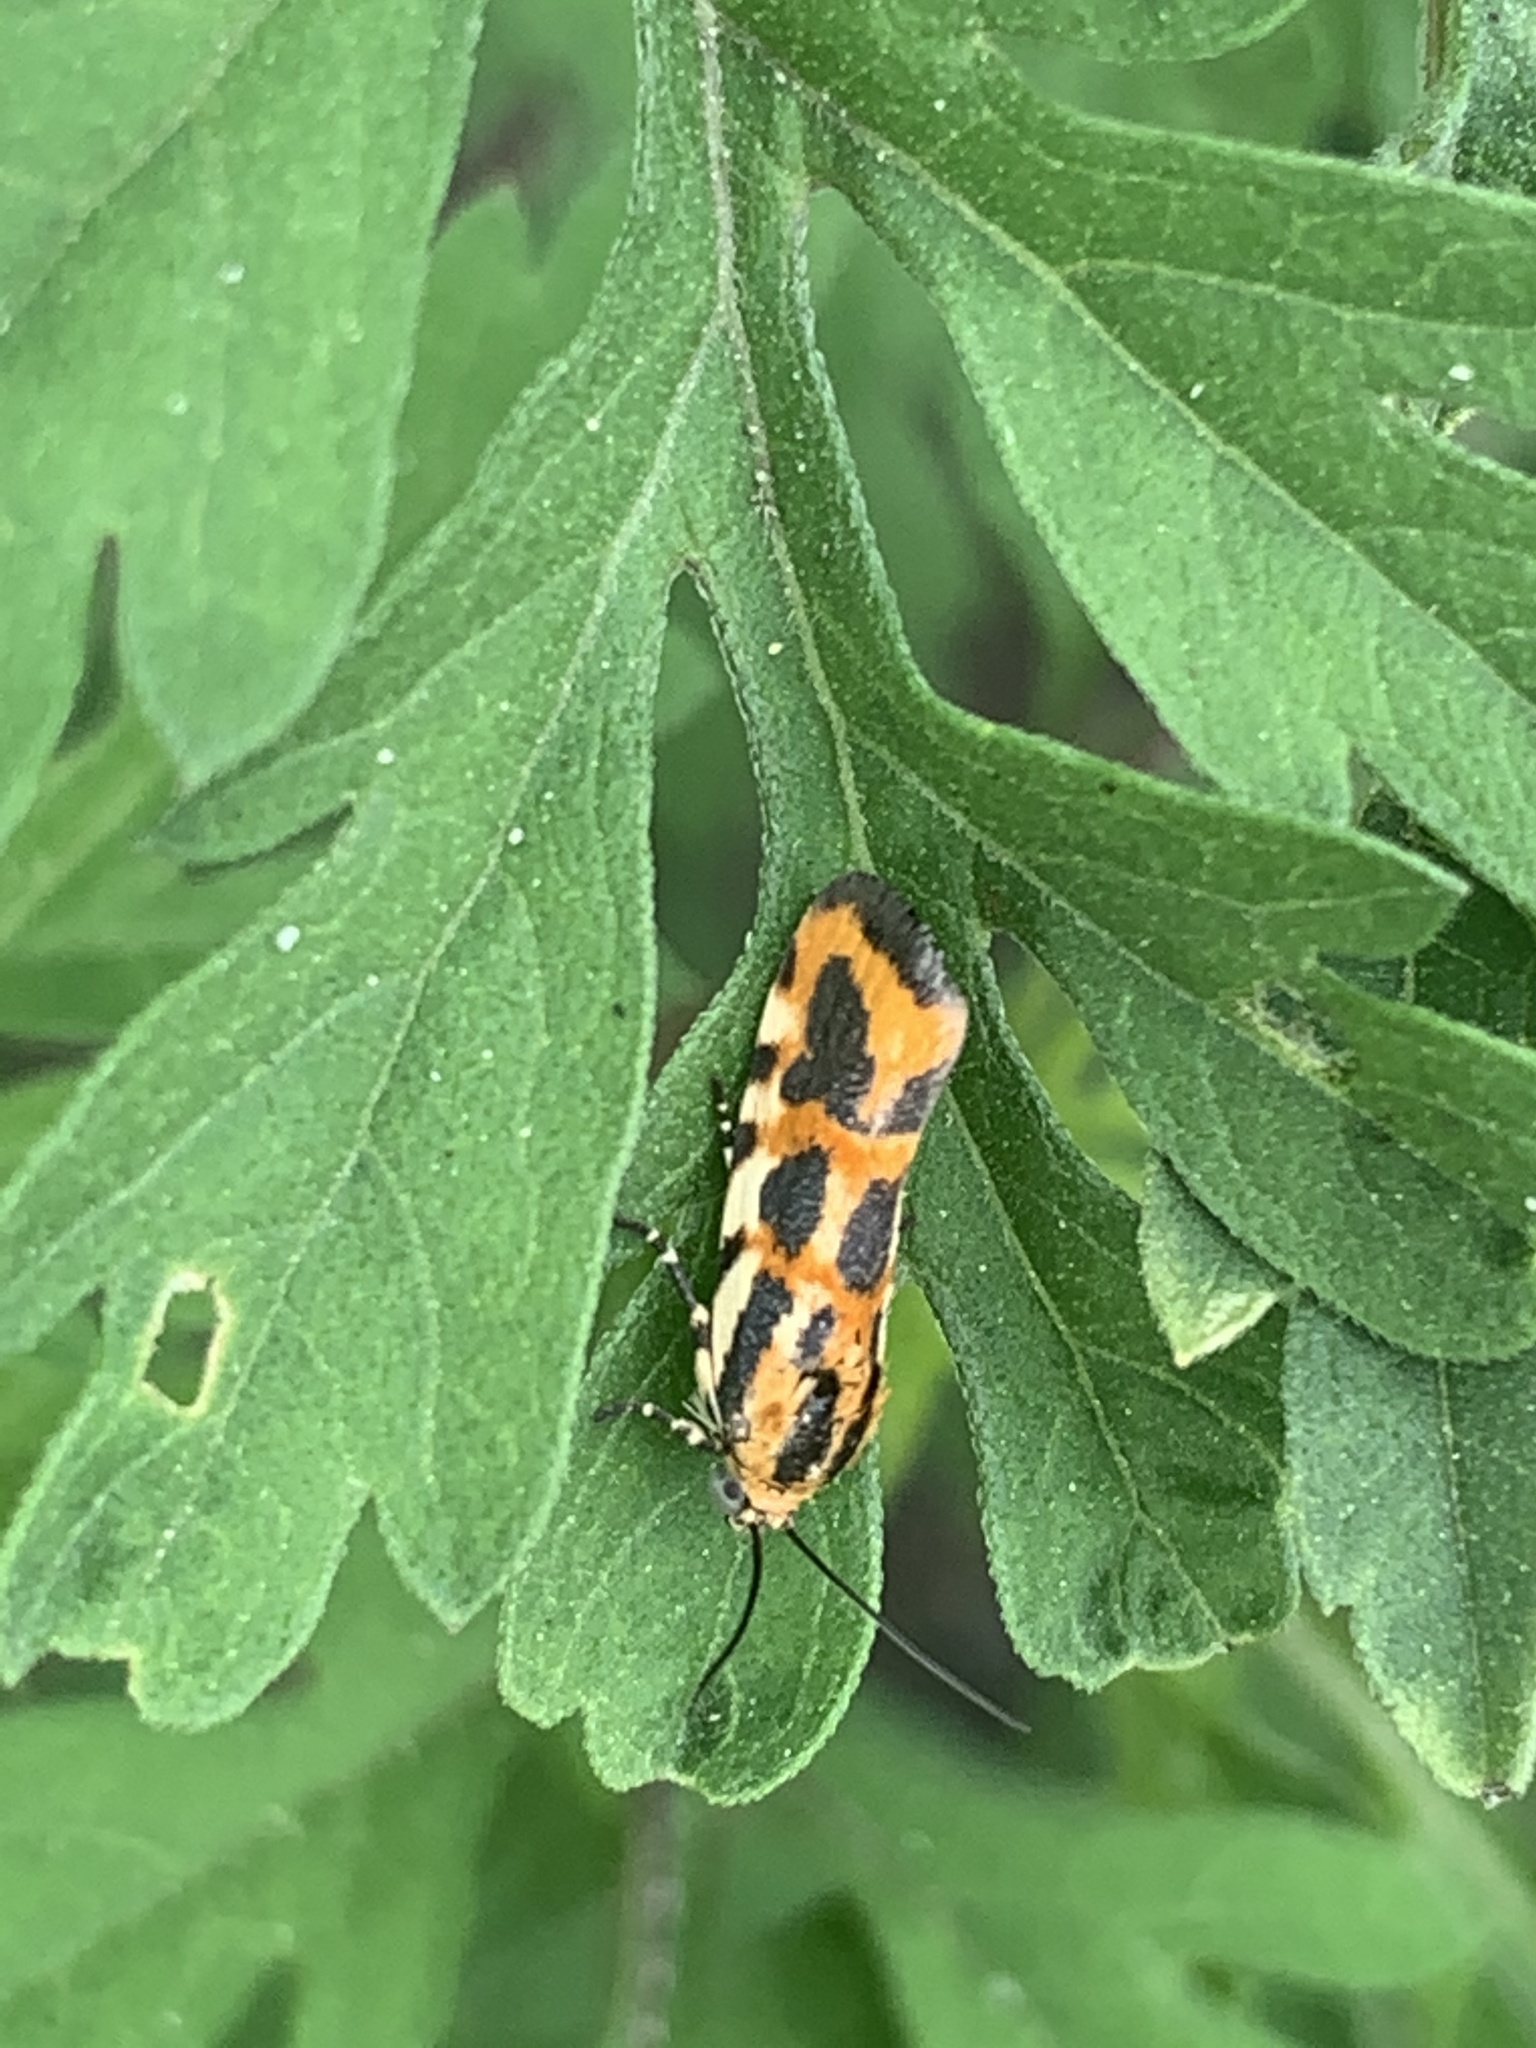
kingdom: Animalia
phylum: Arthropoda
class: Insecta
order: Lepidoptera
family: Noctuidae
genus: Acontia
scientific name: Acontia leo
